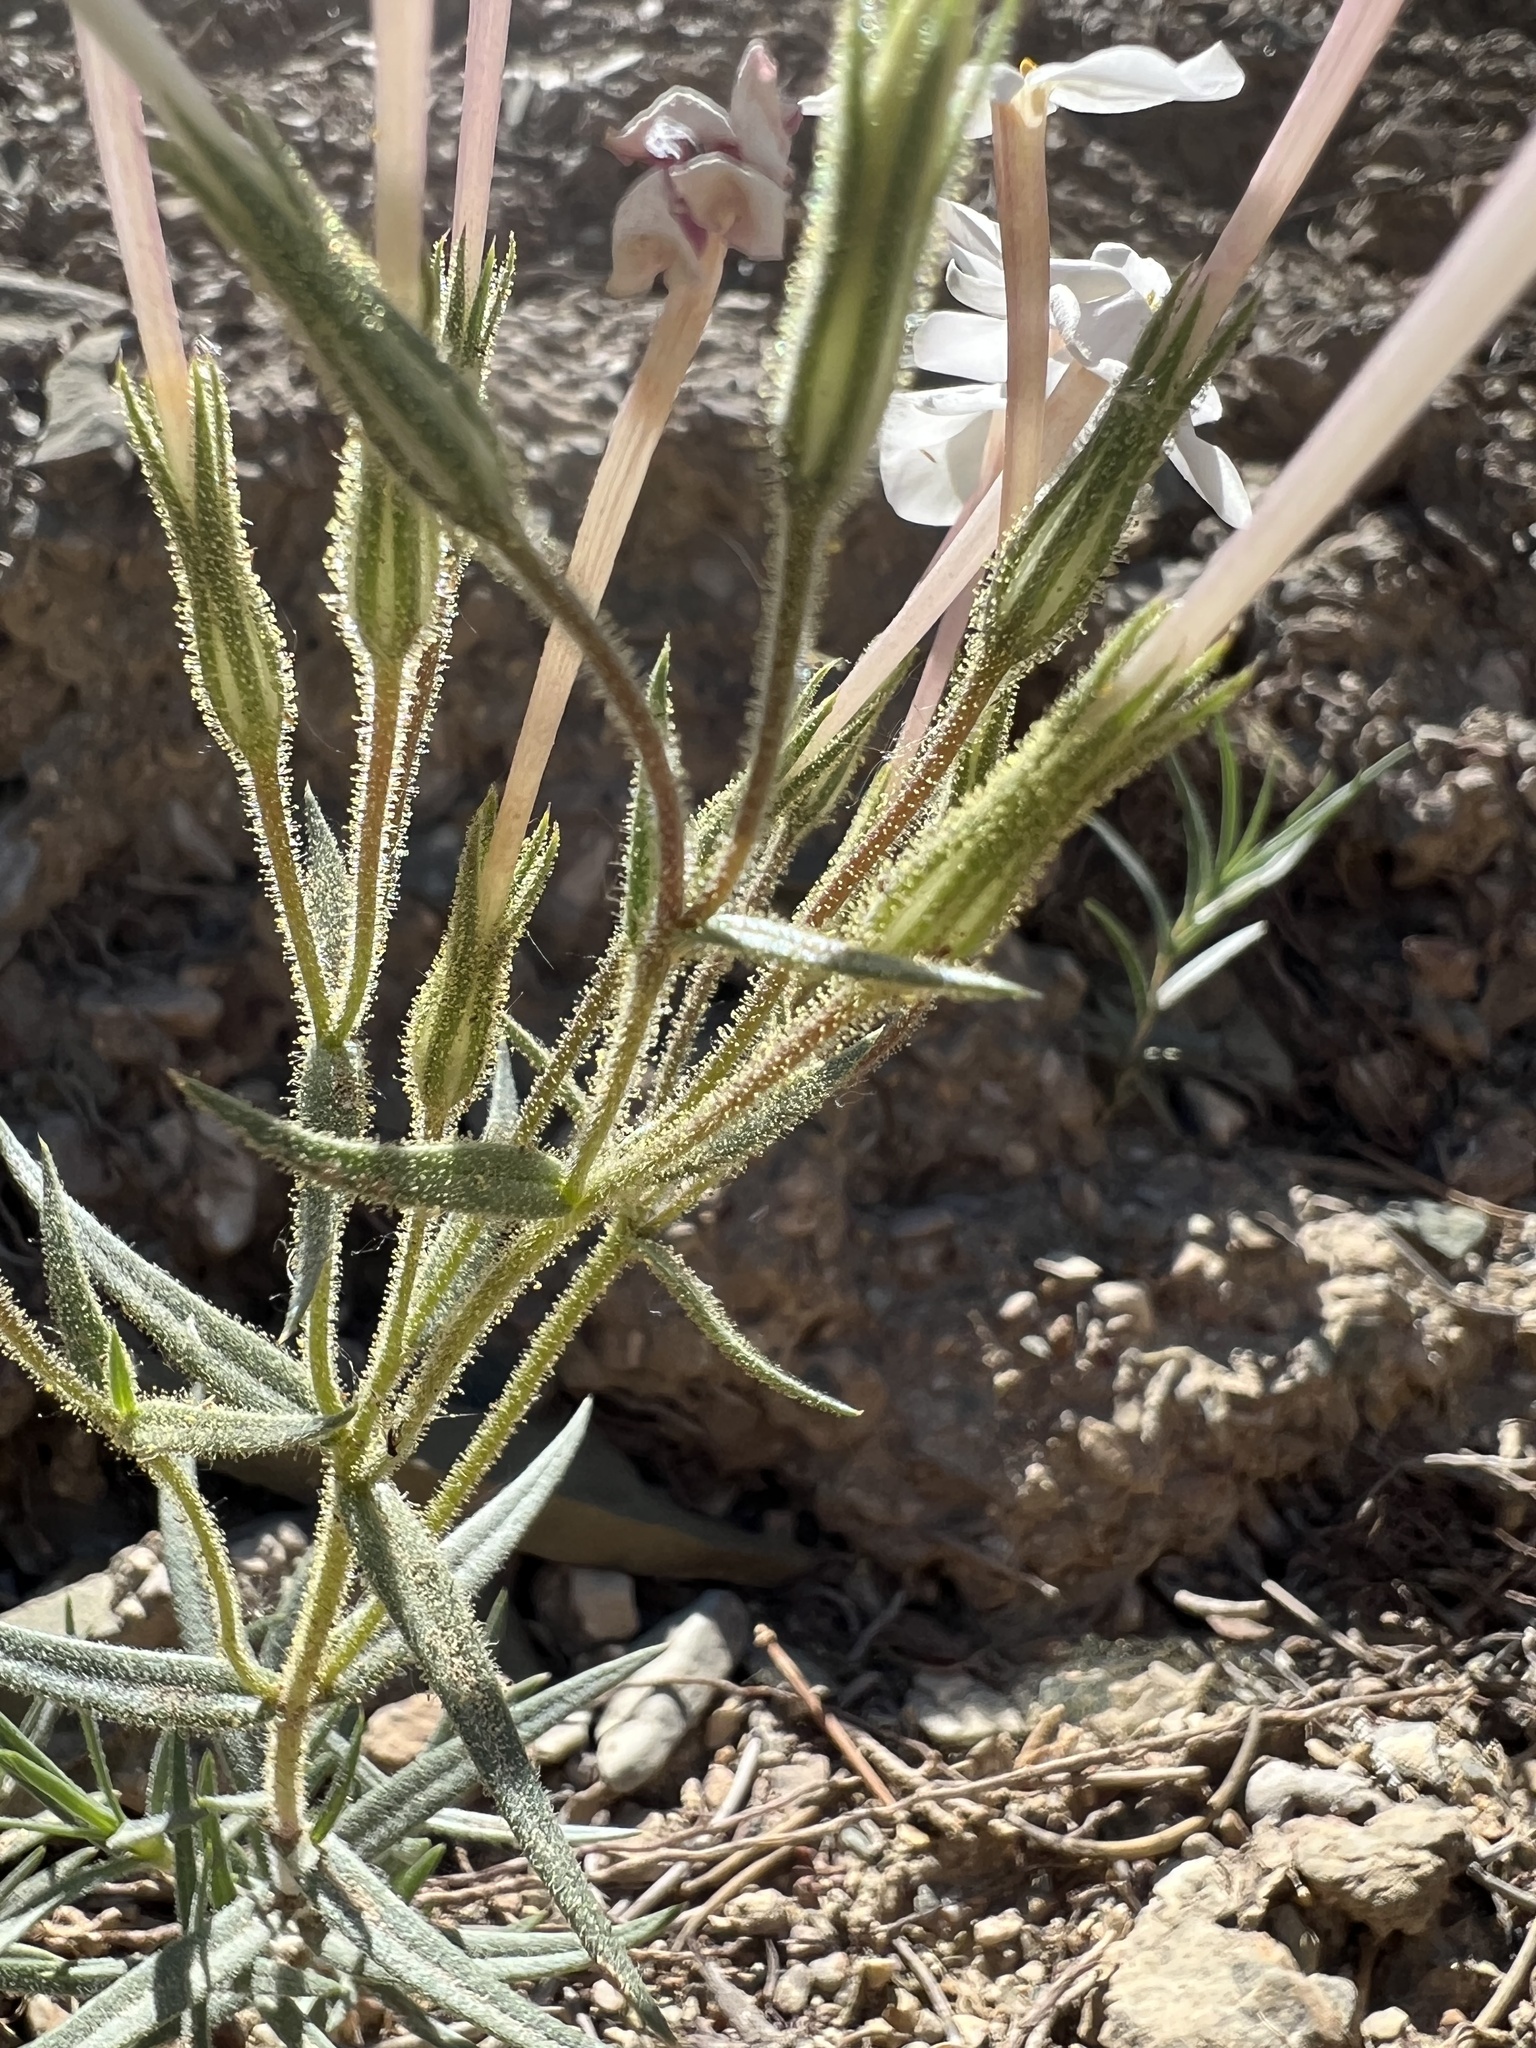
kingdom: Plantae
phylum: Tracheophyta
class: Magnoliopsida
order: Ericales
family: Polemoniaceae
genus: Phlox
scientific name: Phlox longifolia
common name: Longleaf phlox
